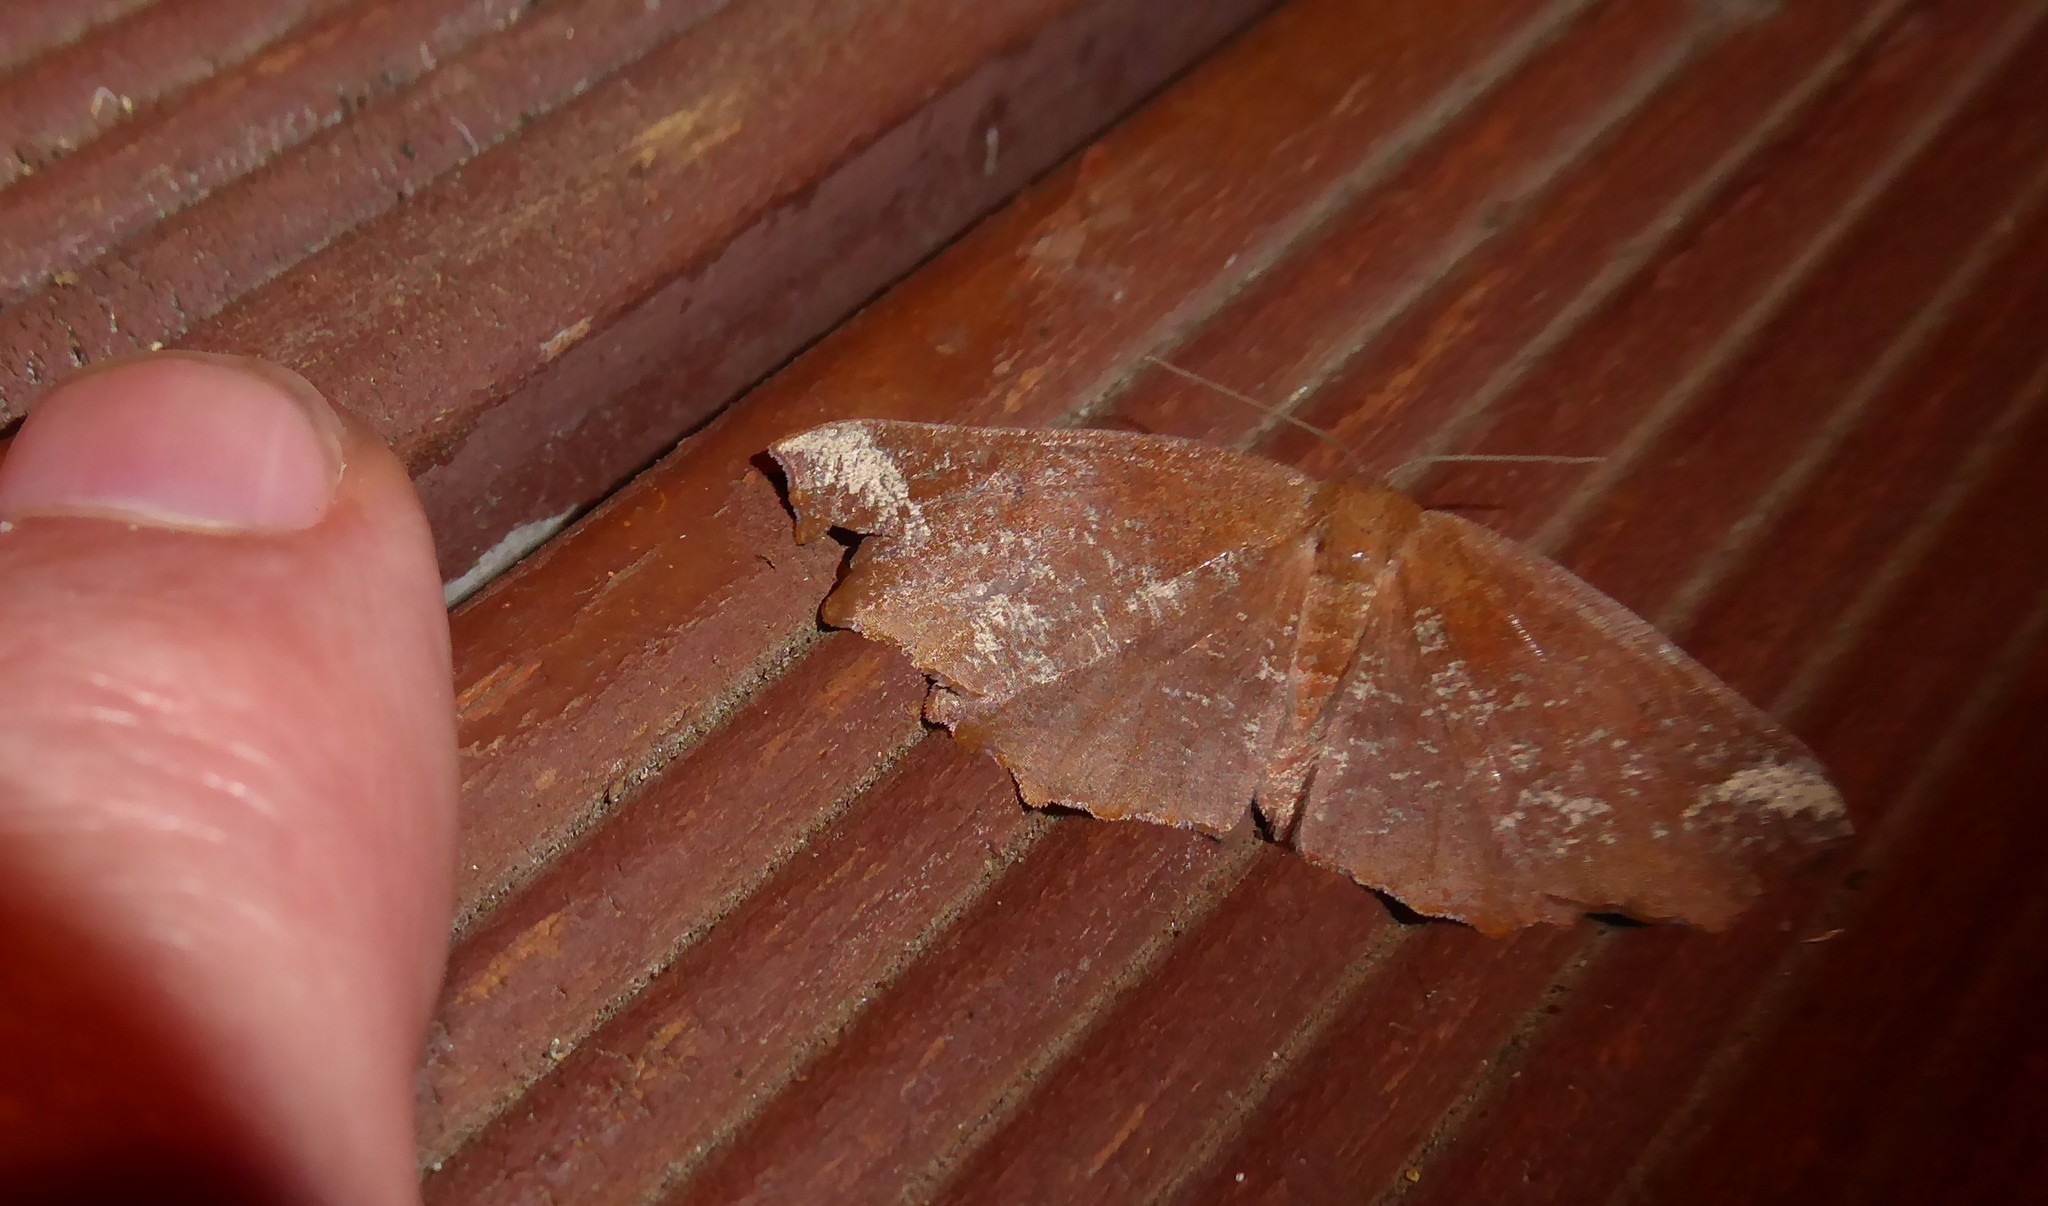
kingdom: Animalia
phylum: Arthropoda
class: Insecta
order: Lepidoptera
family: Geometridae
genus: Xyridacma
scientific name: Xyridacma ustaria
